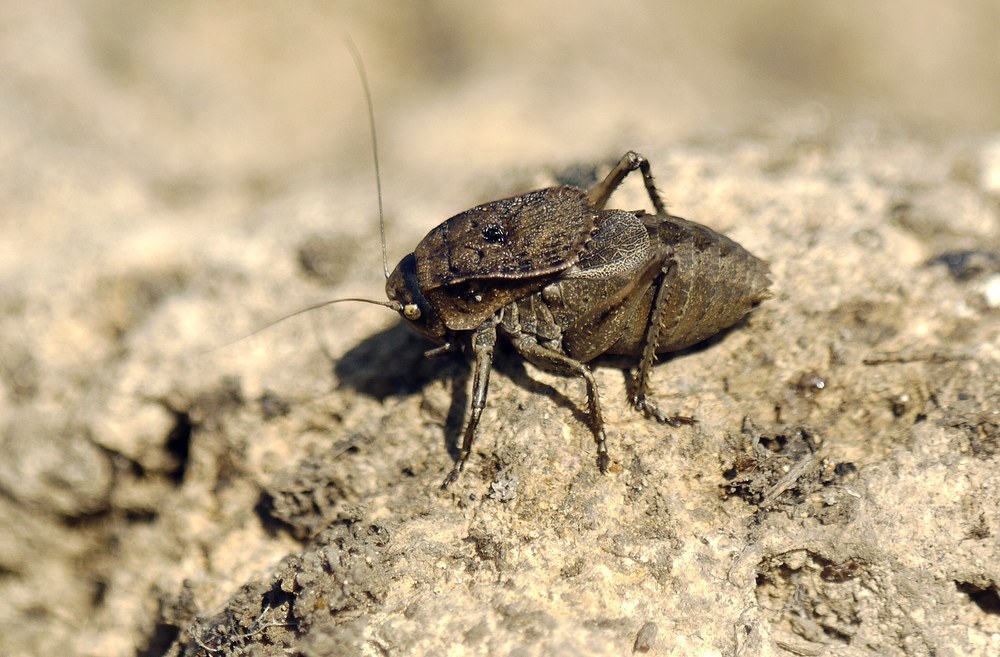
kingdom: Animalia
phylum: Arthropoda
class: Insecta
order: Orthoptera
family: Tettigoniidae
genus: Onconotus
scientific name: Onconotus servillei
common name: Southern barbed-wire bush-cricket
